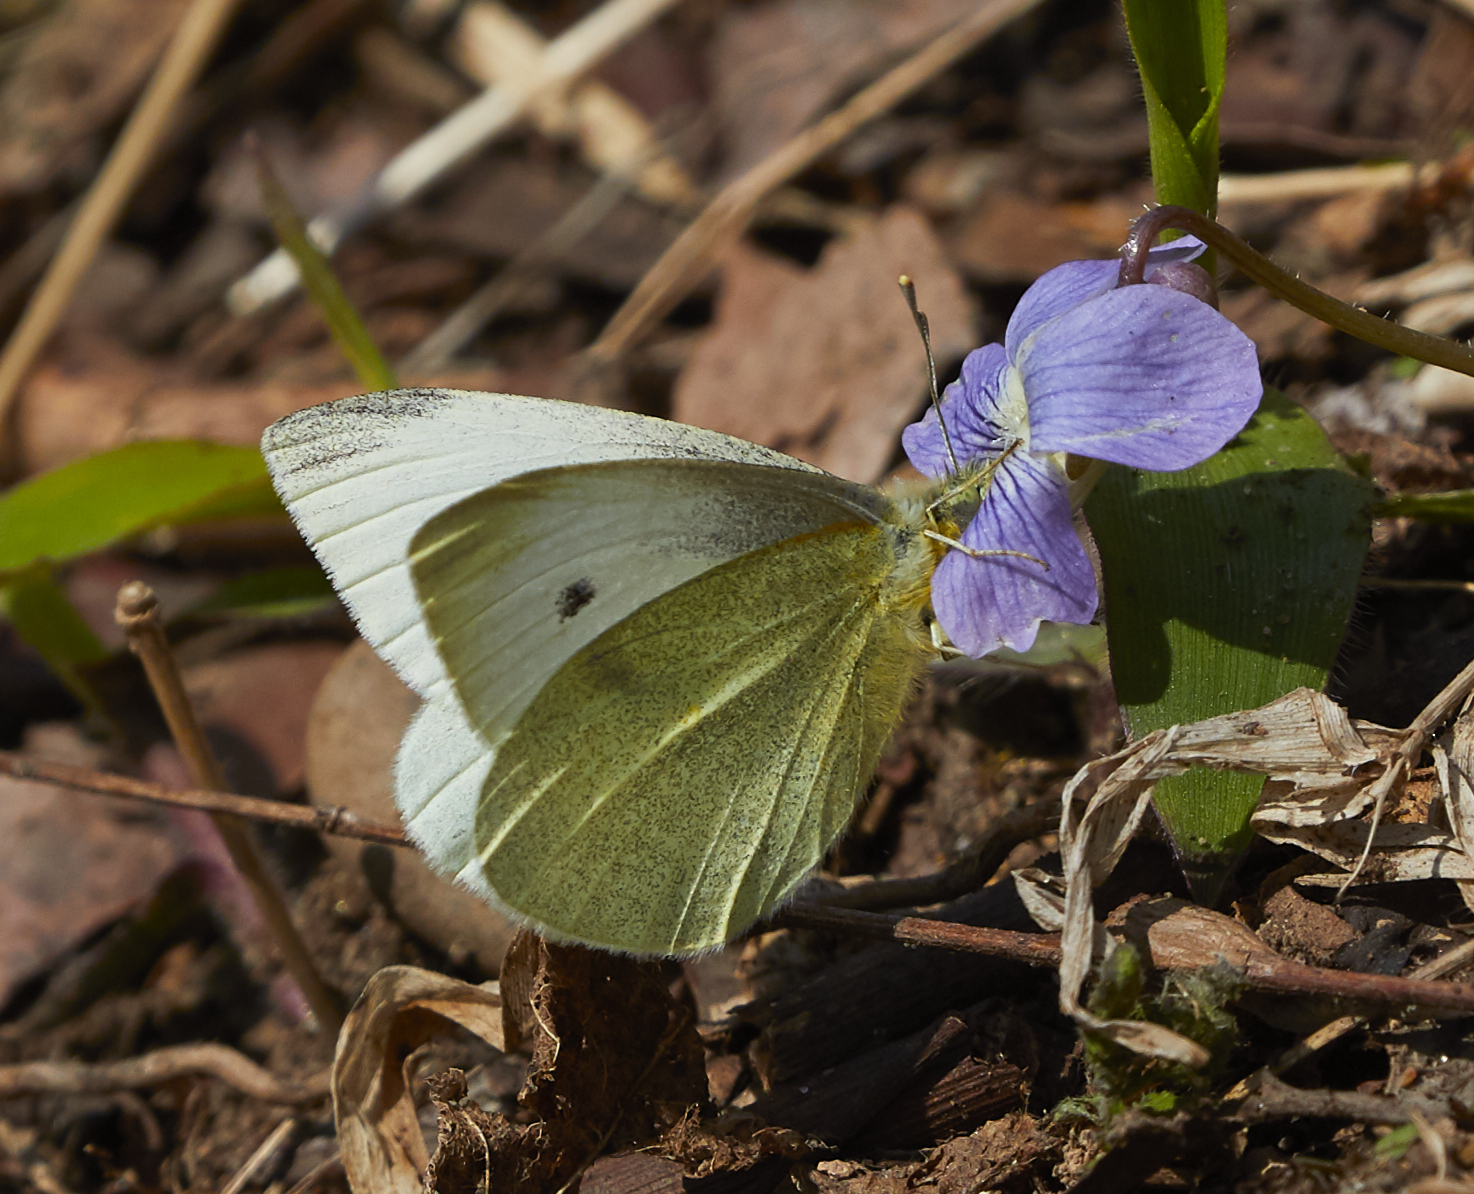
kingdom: Animalia
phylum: Arthropoda
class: Insecta
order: Lepidoptera
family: Pieridae
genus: Pieris
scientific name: Pieris rapae
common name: Small white
